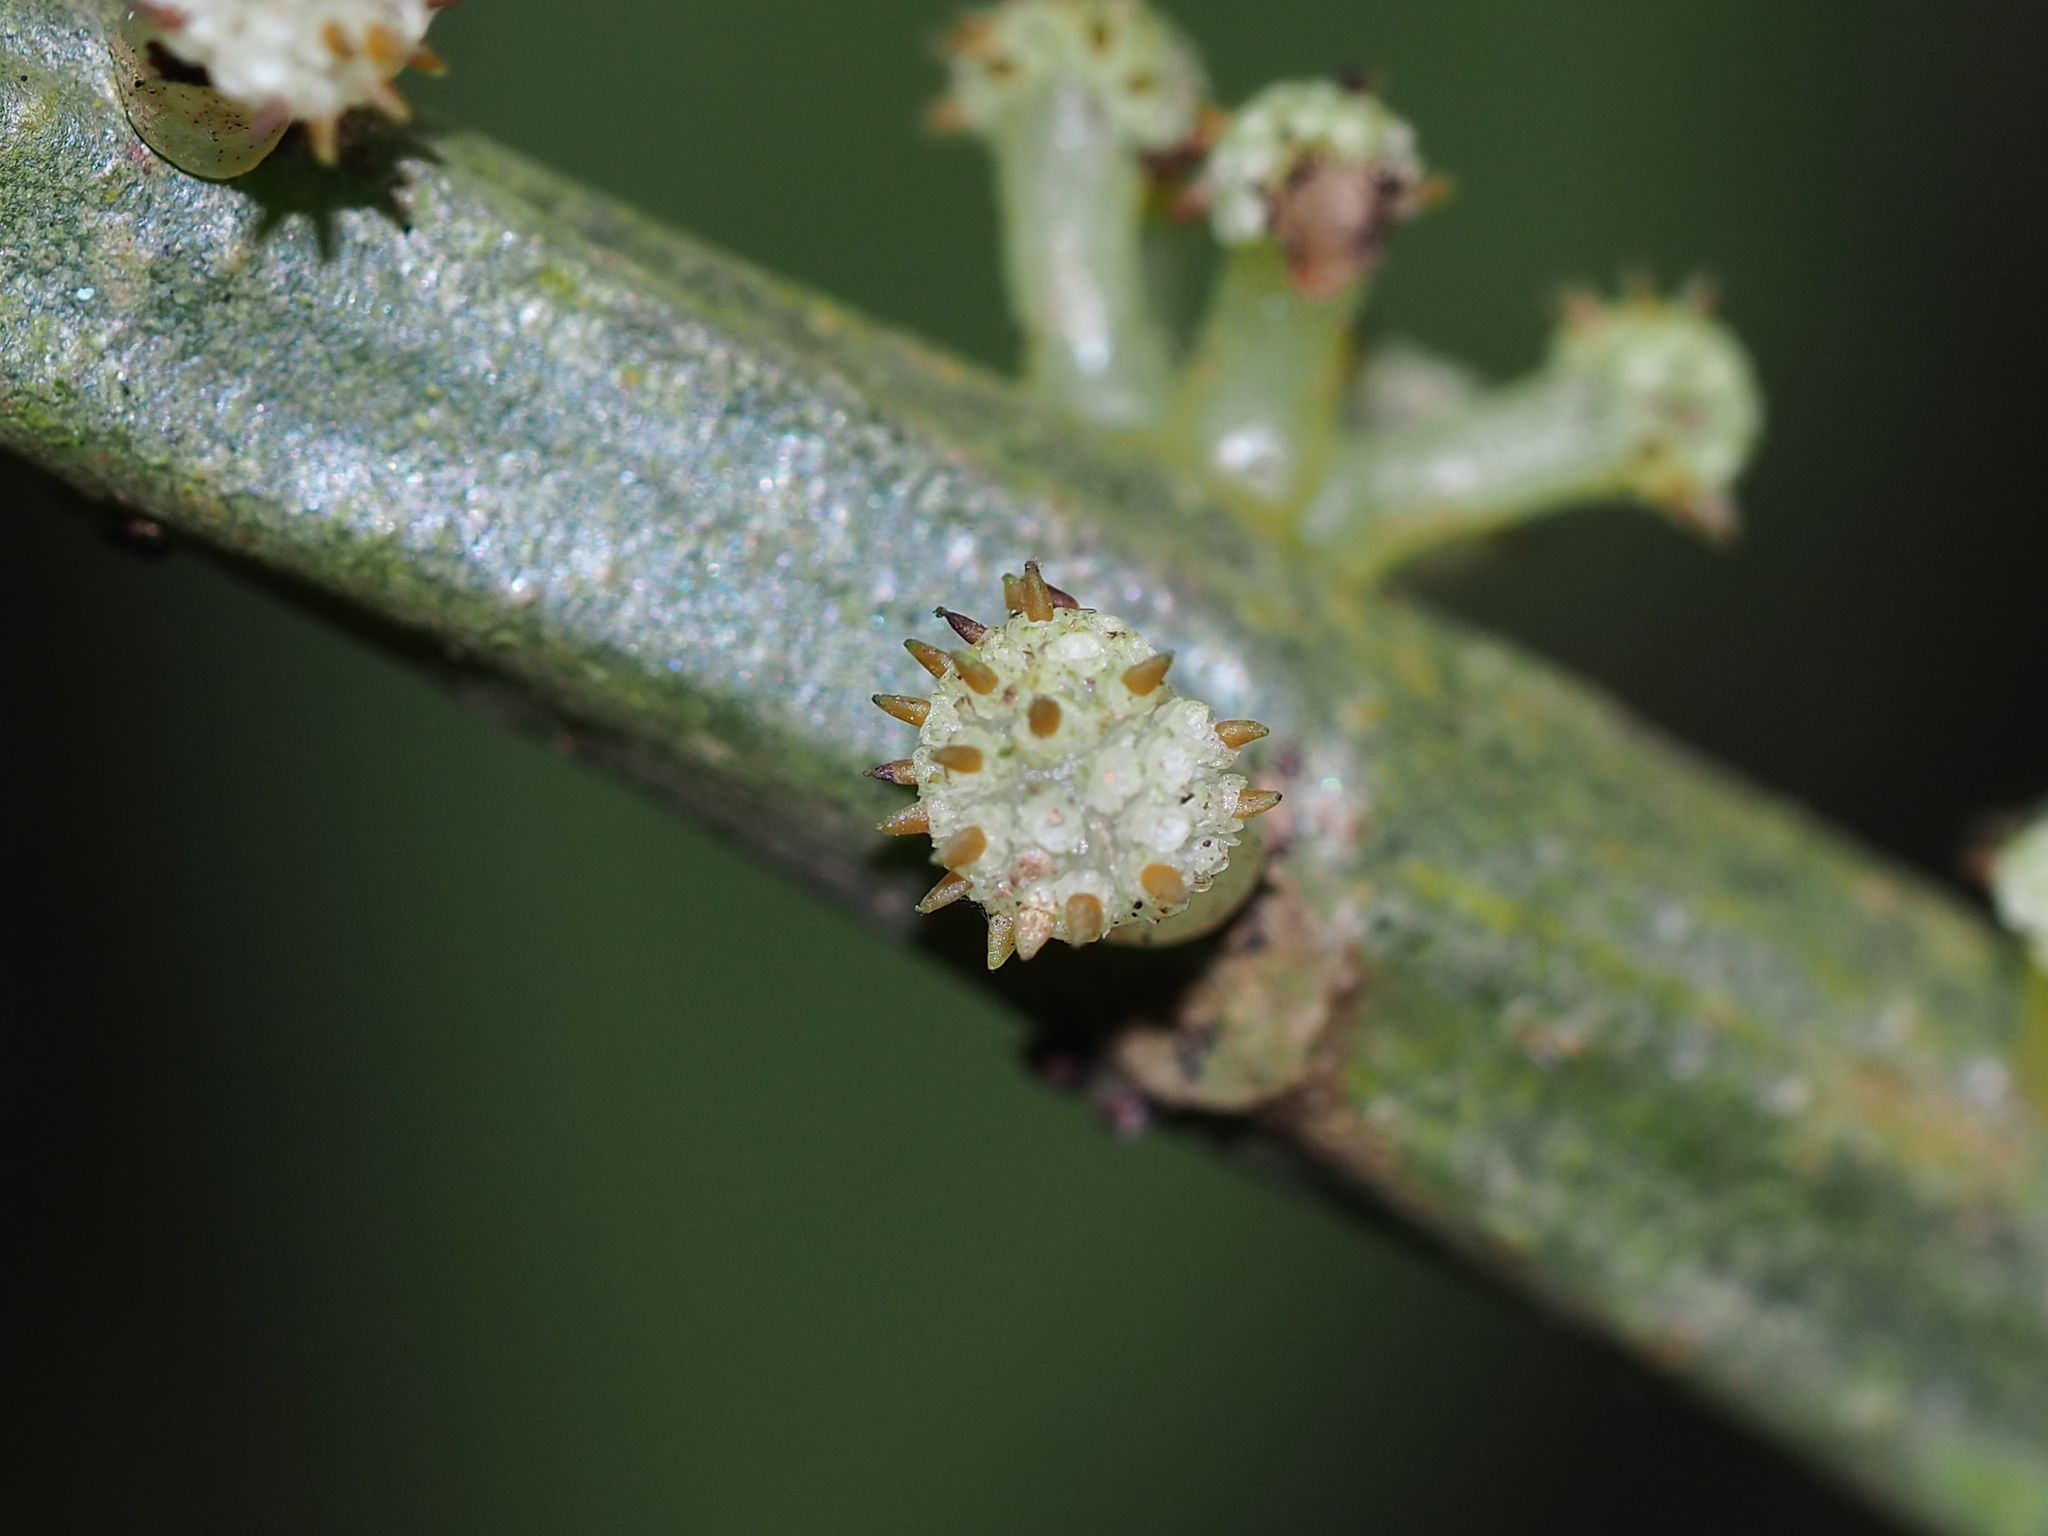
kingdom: Plantae
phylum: Tracheophyta
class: Magnoliopsida
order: Rosales
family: Urticaceae
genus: Procris
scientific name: Procris
